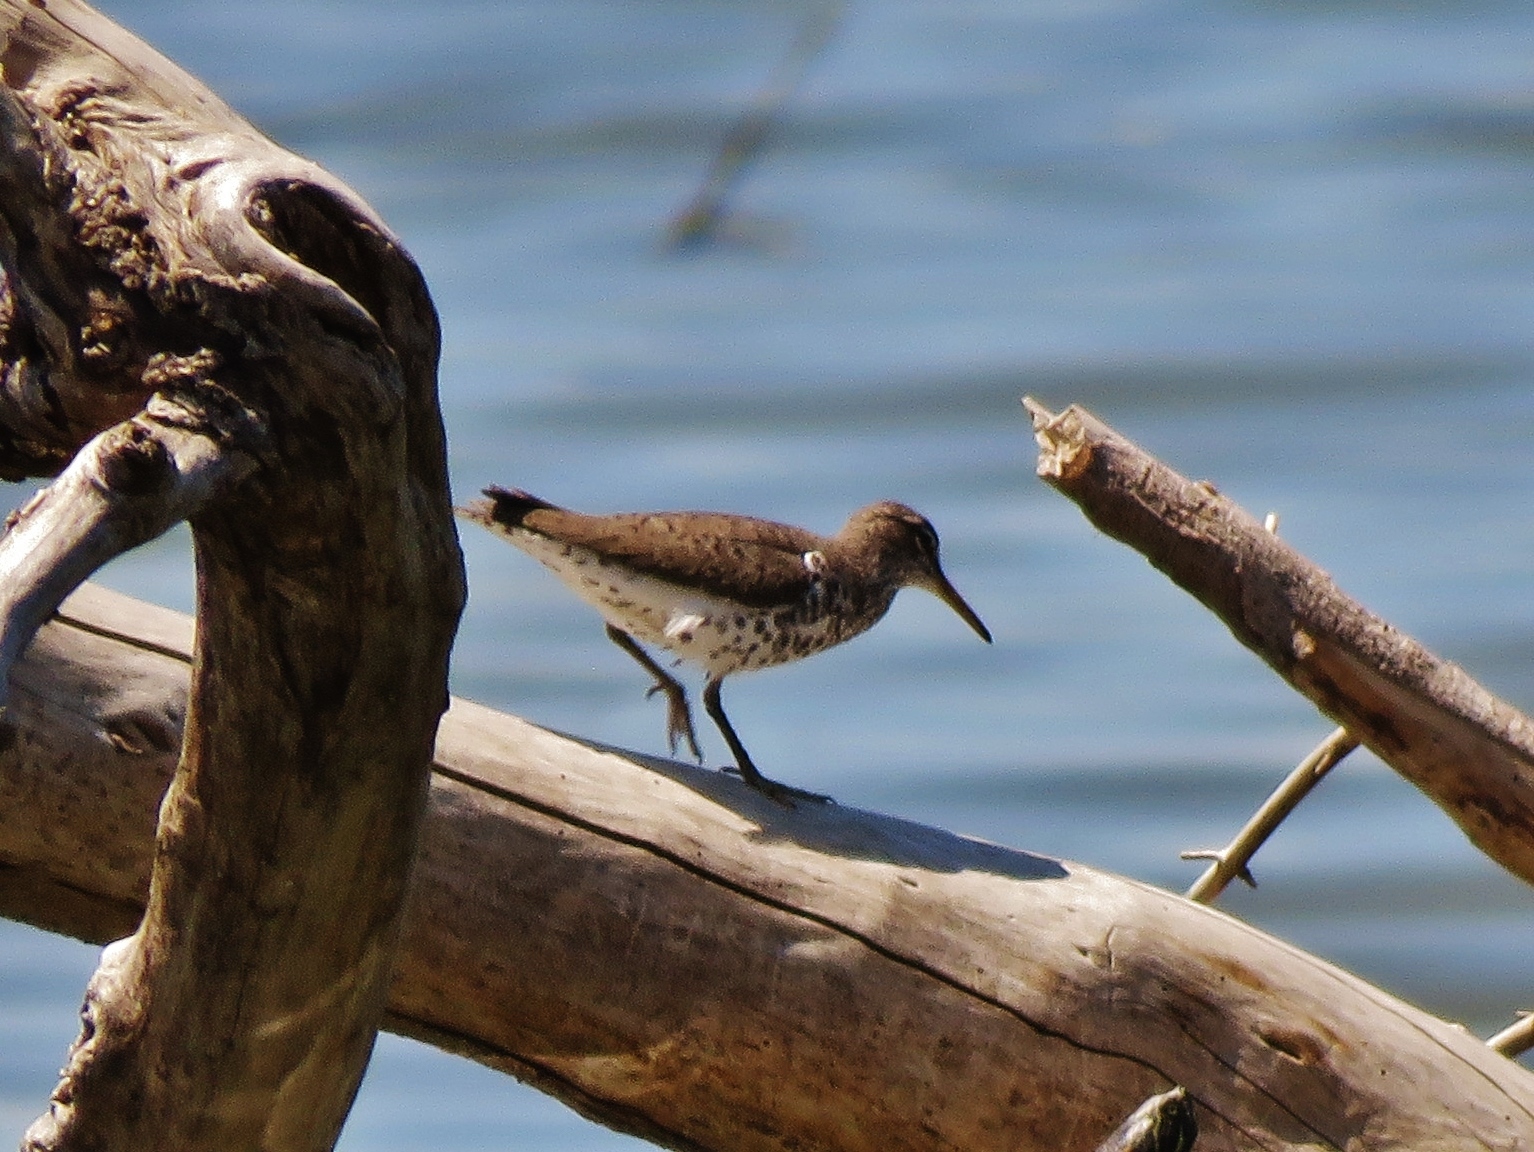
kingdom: Animalia
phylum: Chordata
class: Aves
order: Charadriiformes
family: Scolopacidae
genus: Actitis
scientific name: Actitis macularius
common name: Spotted sandpiper
